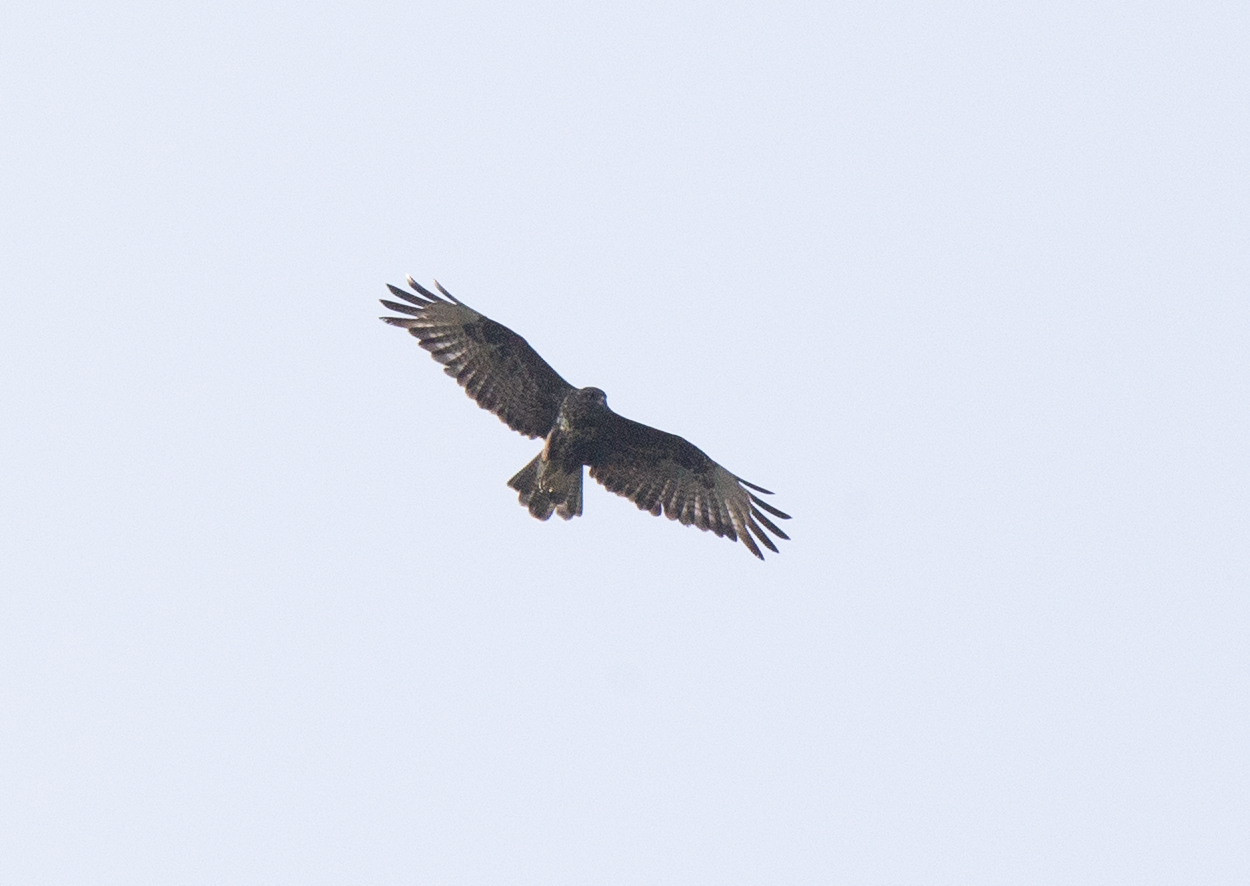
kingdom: Animalia
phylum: Chordata
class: Aves
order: Accipitriformes
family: Accipitridae
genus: Buteo
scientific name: Buteo buteo
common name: Common buzzard
